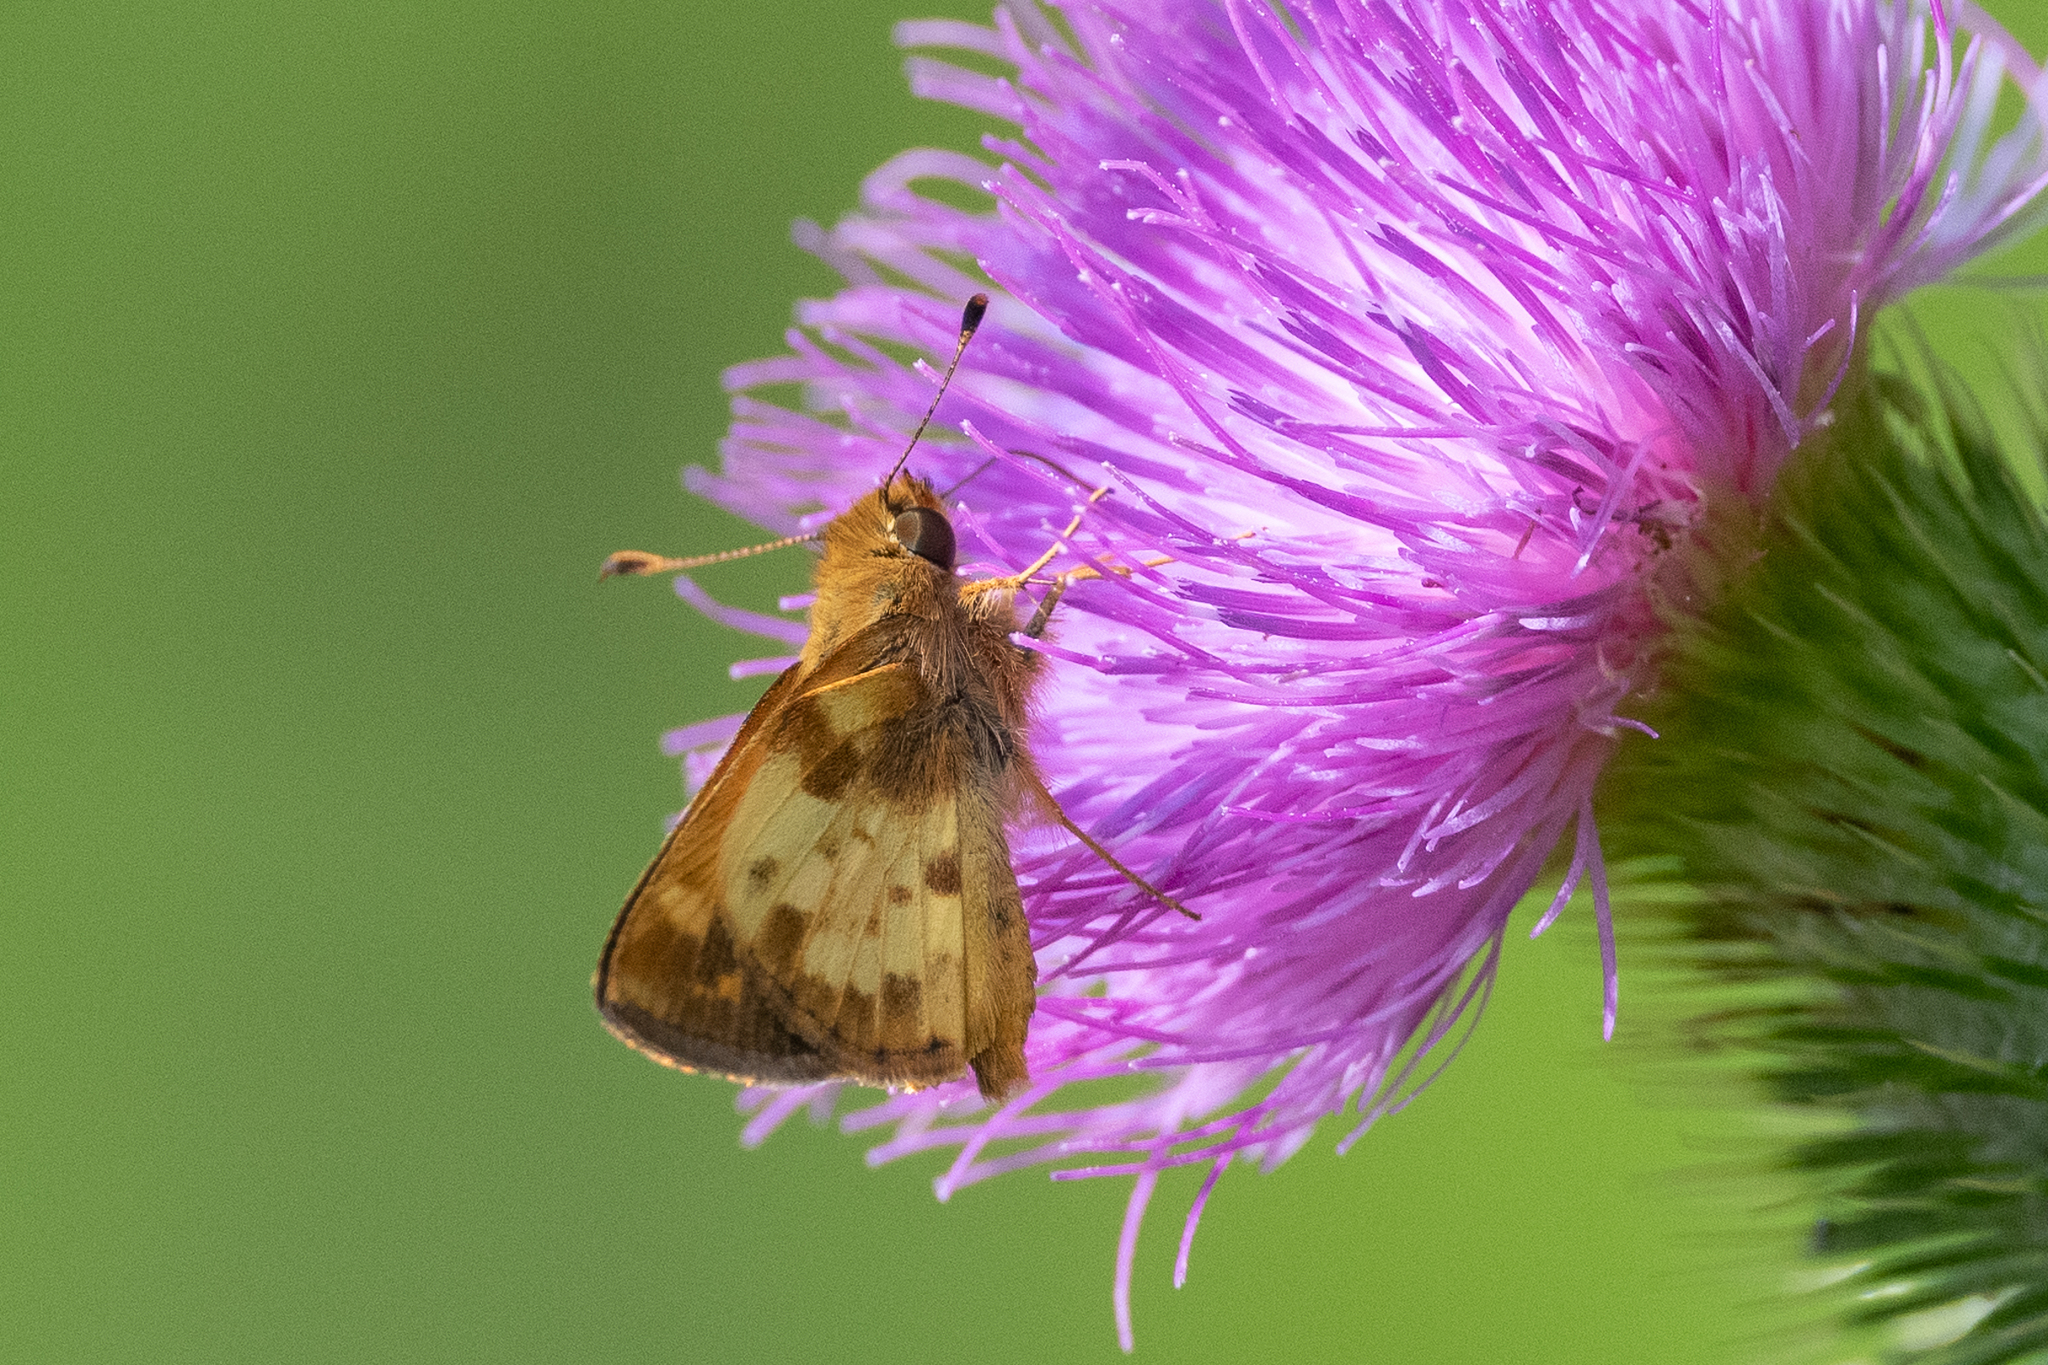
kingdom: Animalia
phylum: Arthropoda
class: Insecta
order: Lepidoptera
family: Hesperiidae
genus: Lon
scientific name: Lon zabulon
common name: Zabulon skipper
